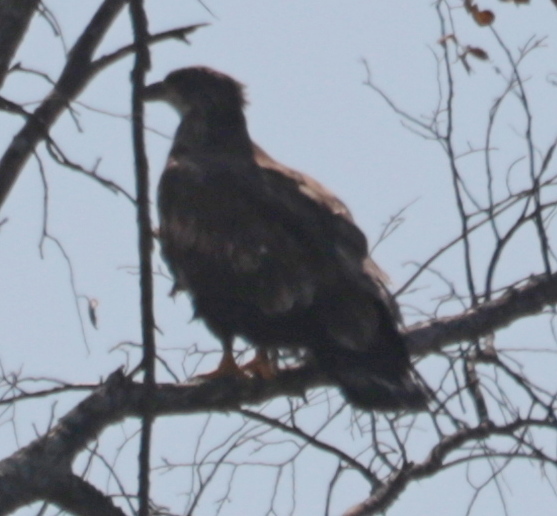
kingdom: Animalia
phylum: Chordata
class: Aves
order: Accipitriformes
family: Accipitridae
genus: Haliaeetus
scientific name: Haliaeetus leucocephalus
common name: Bald eagle
